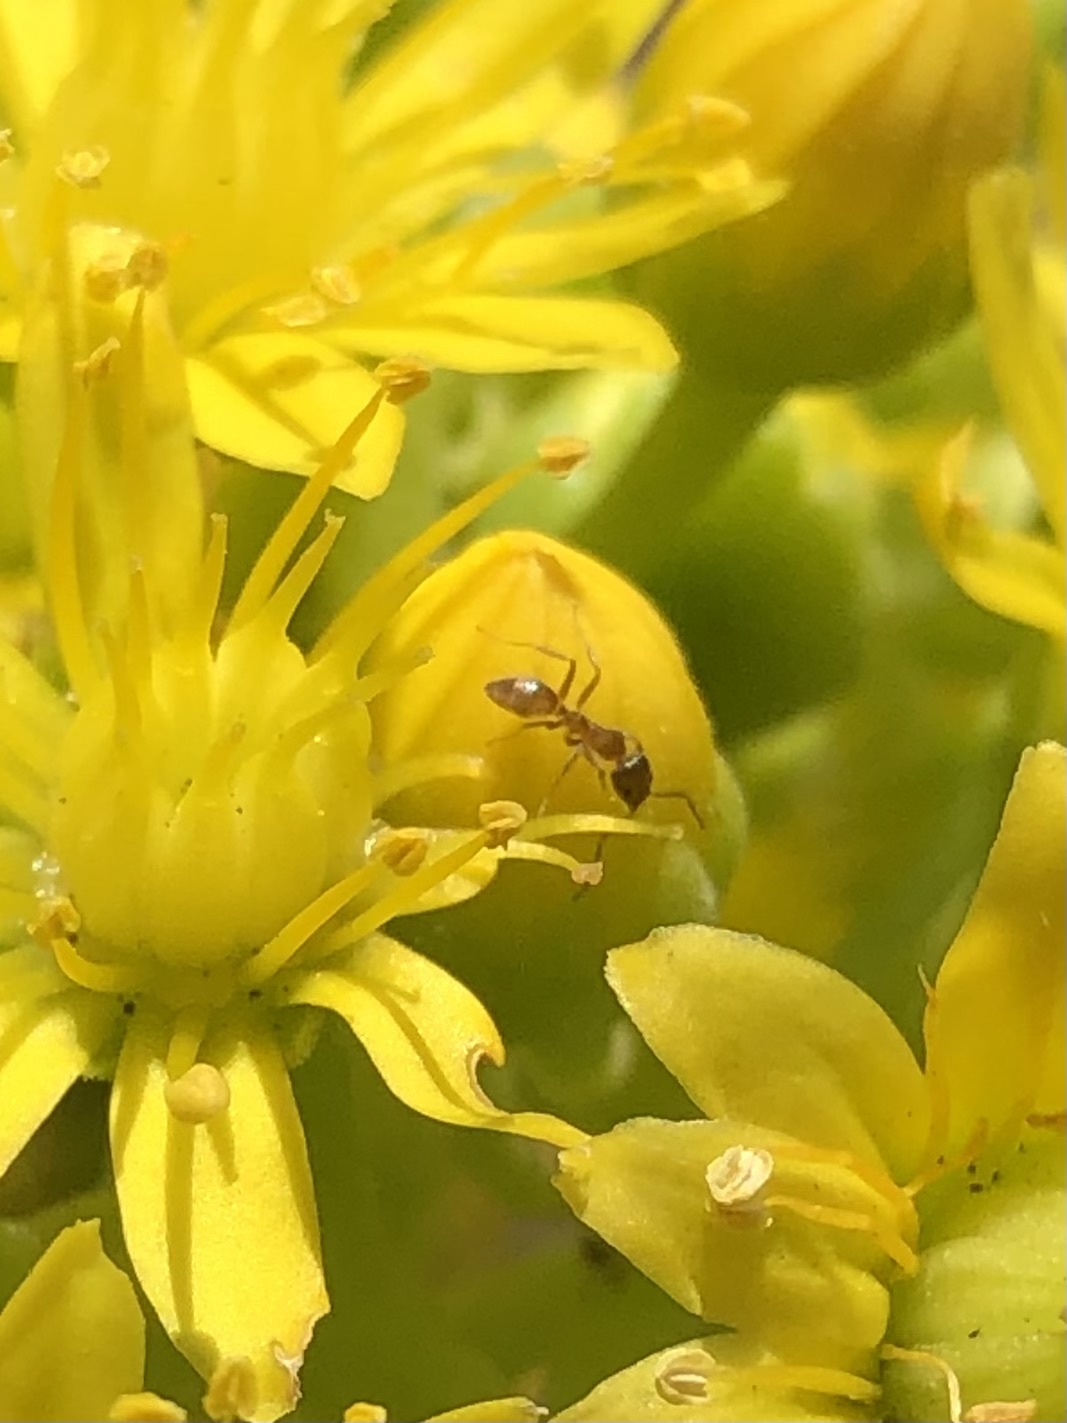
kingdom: Animalia
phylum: Arthropoda
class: Insecta
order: Hymenoptera
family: Formicidae
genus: Linepithema
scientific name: Linepithema humile
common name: Argentine ant
